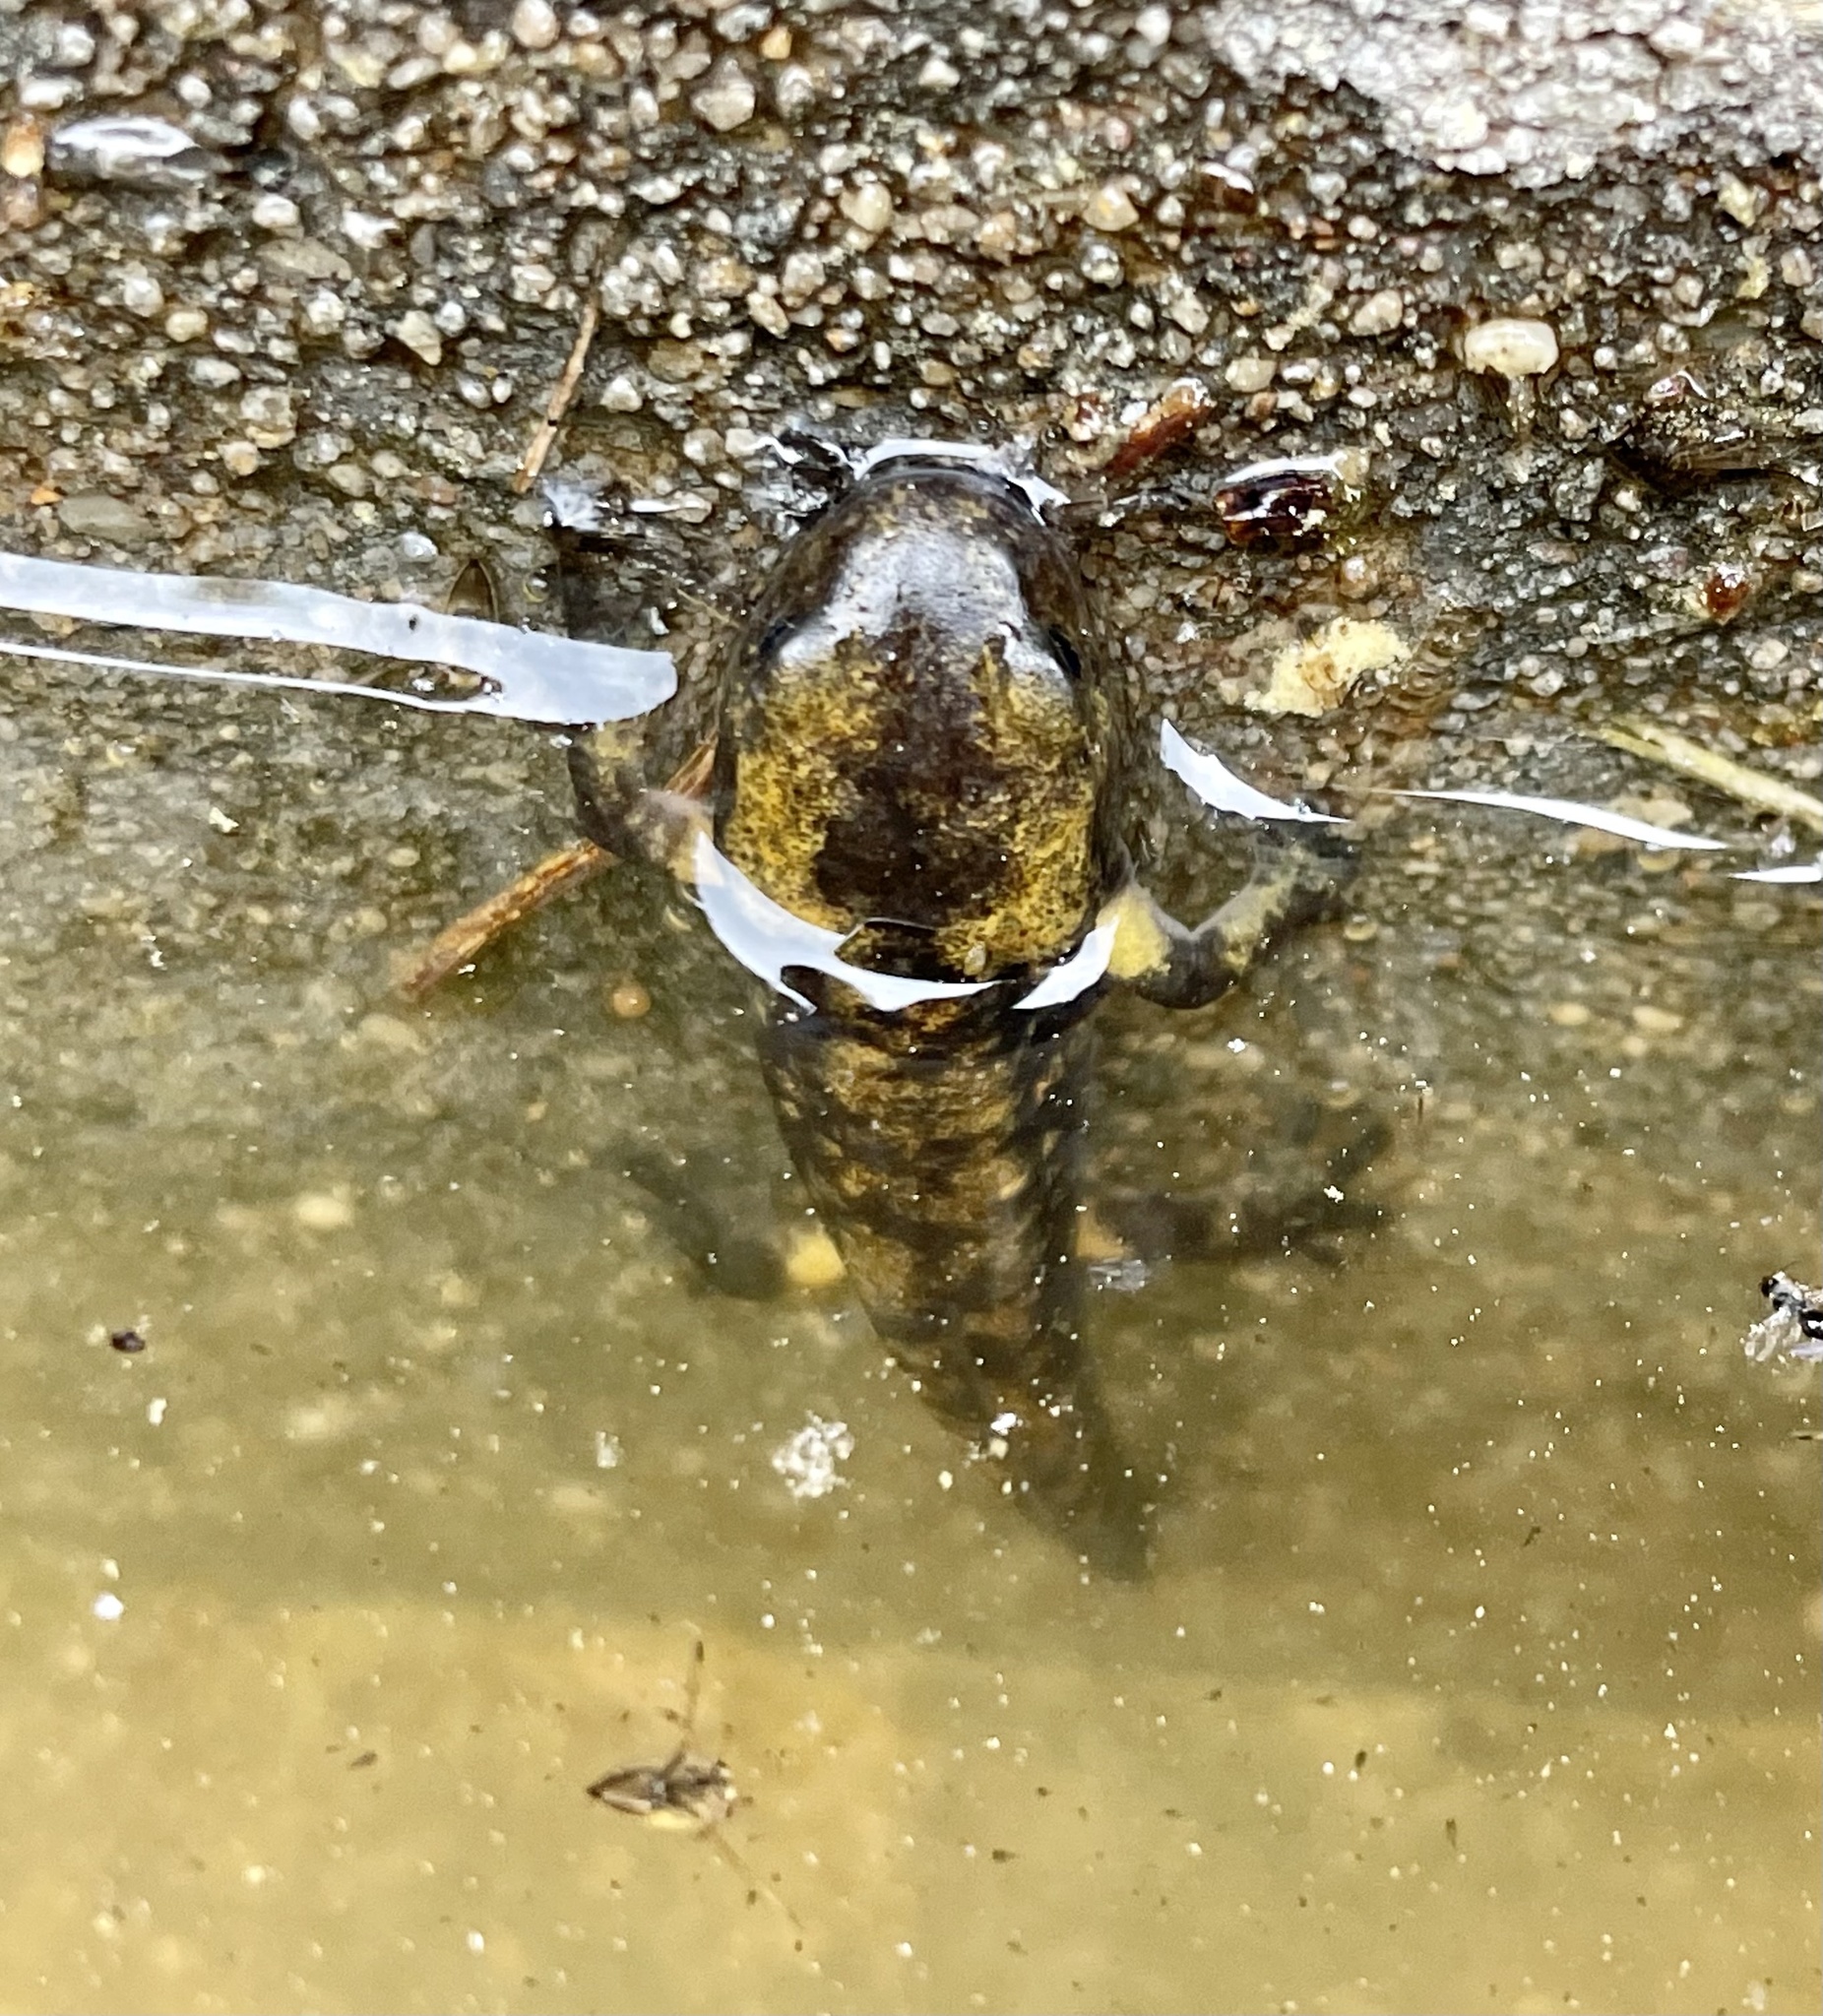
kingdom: Animalia
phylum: Chordata
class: Amphibia
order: Caudata
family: Salamandridae
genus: Salamandra
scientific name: Salamandra salamandra
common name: Fire salamander
